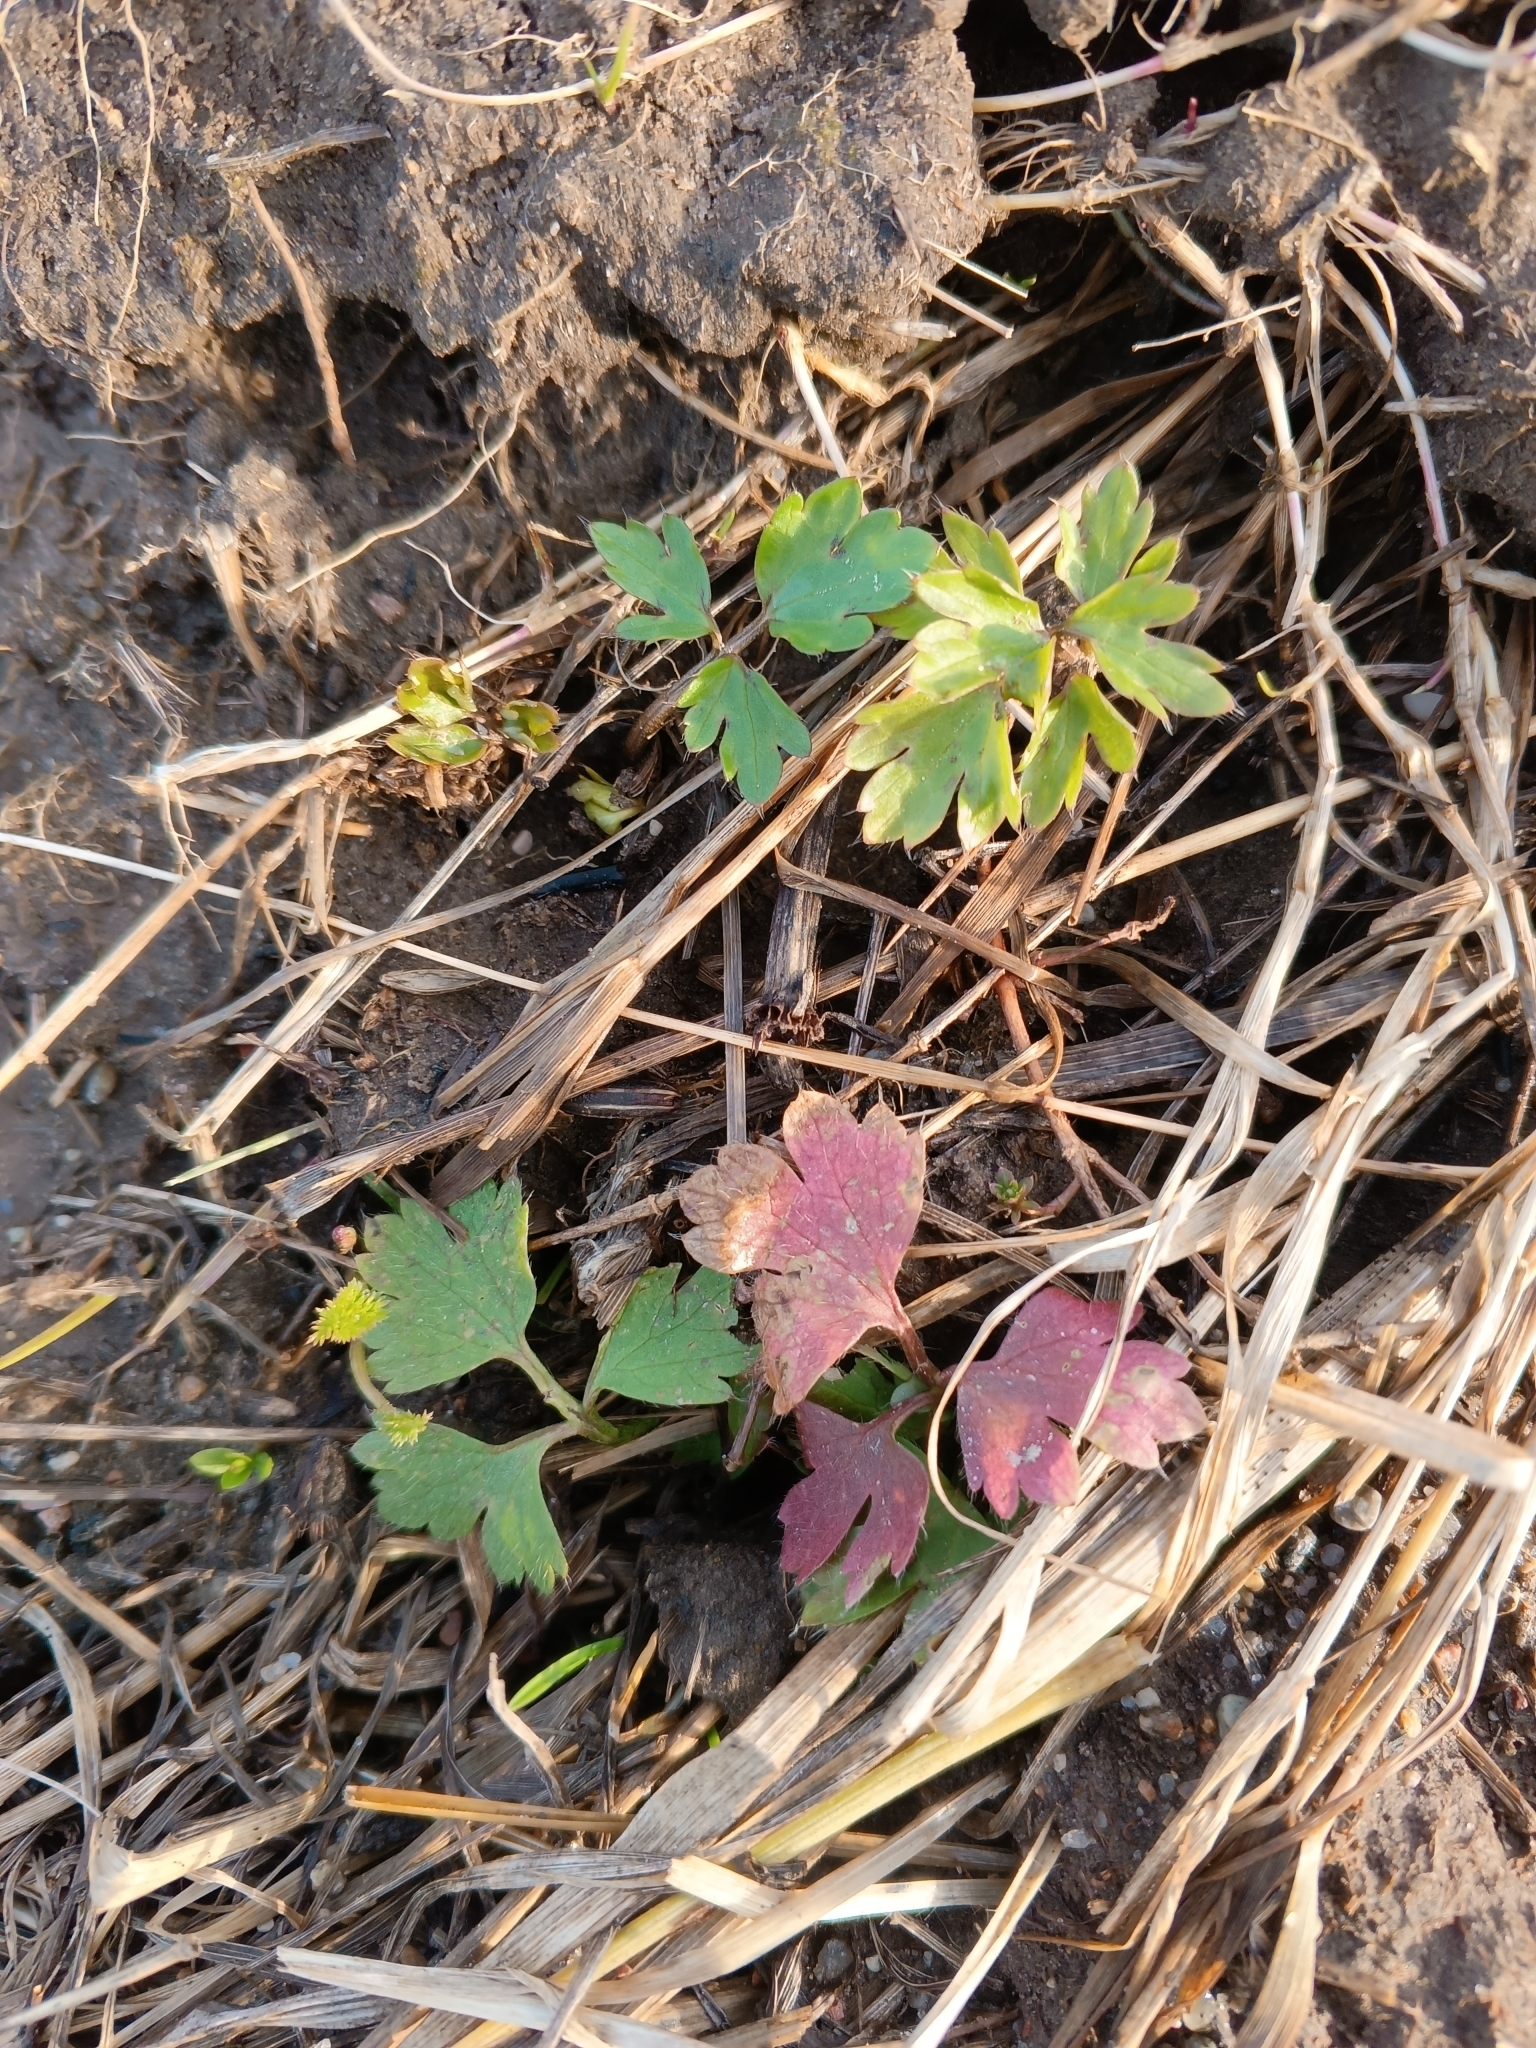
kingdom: Plantae
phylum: Tracheophyta
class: Magnoliopsida
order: Ranunculales
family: Ranunculaceae
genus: Ranunculus
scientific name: Ranunculus repens
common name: Creeping buttercup
